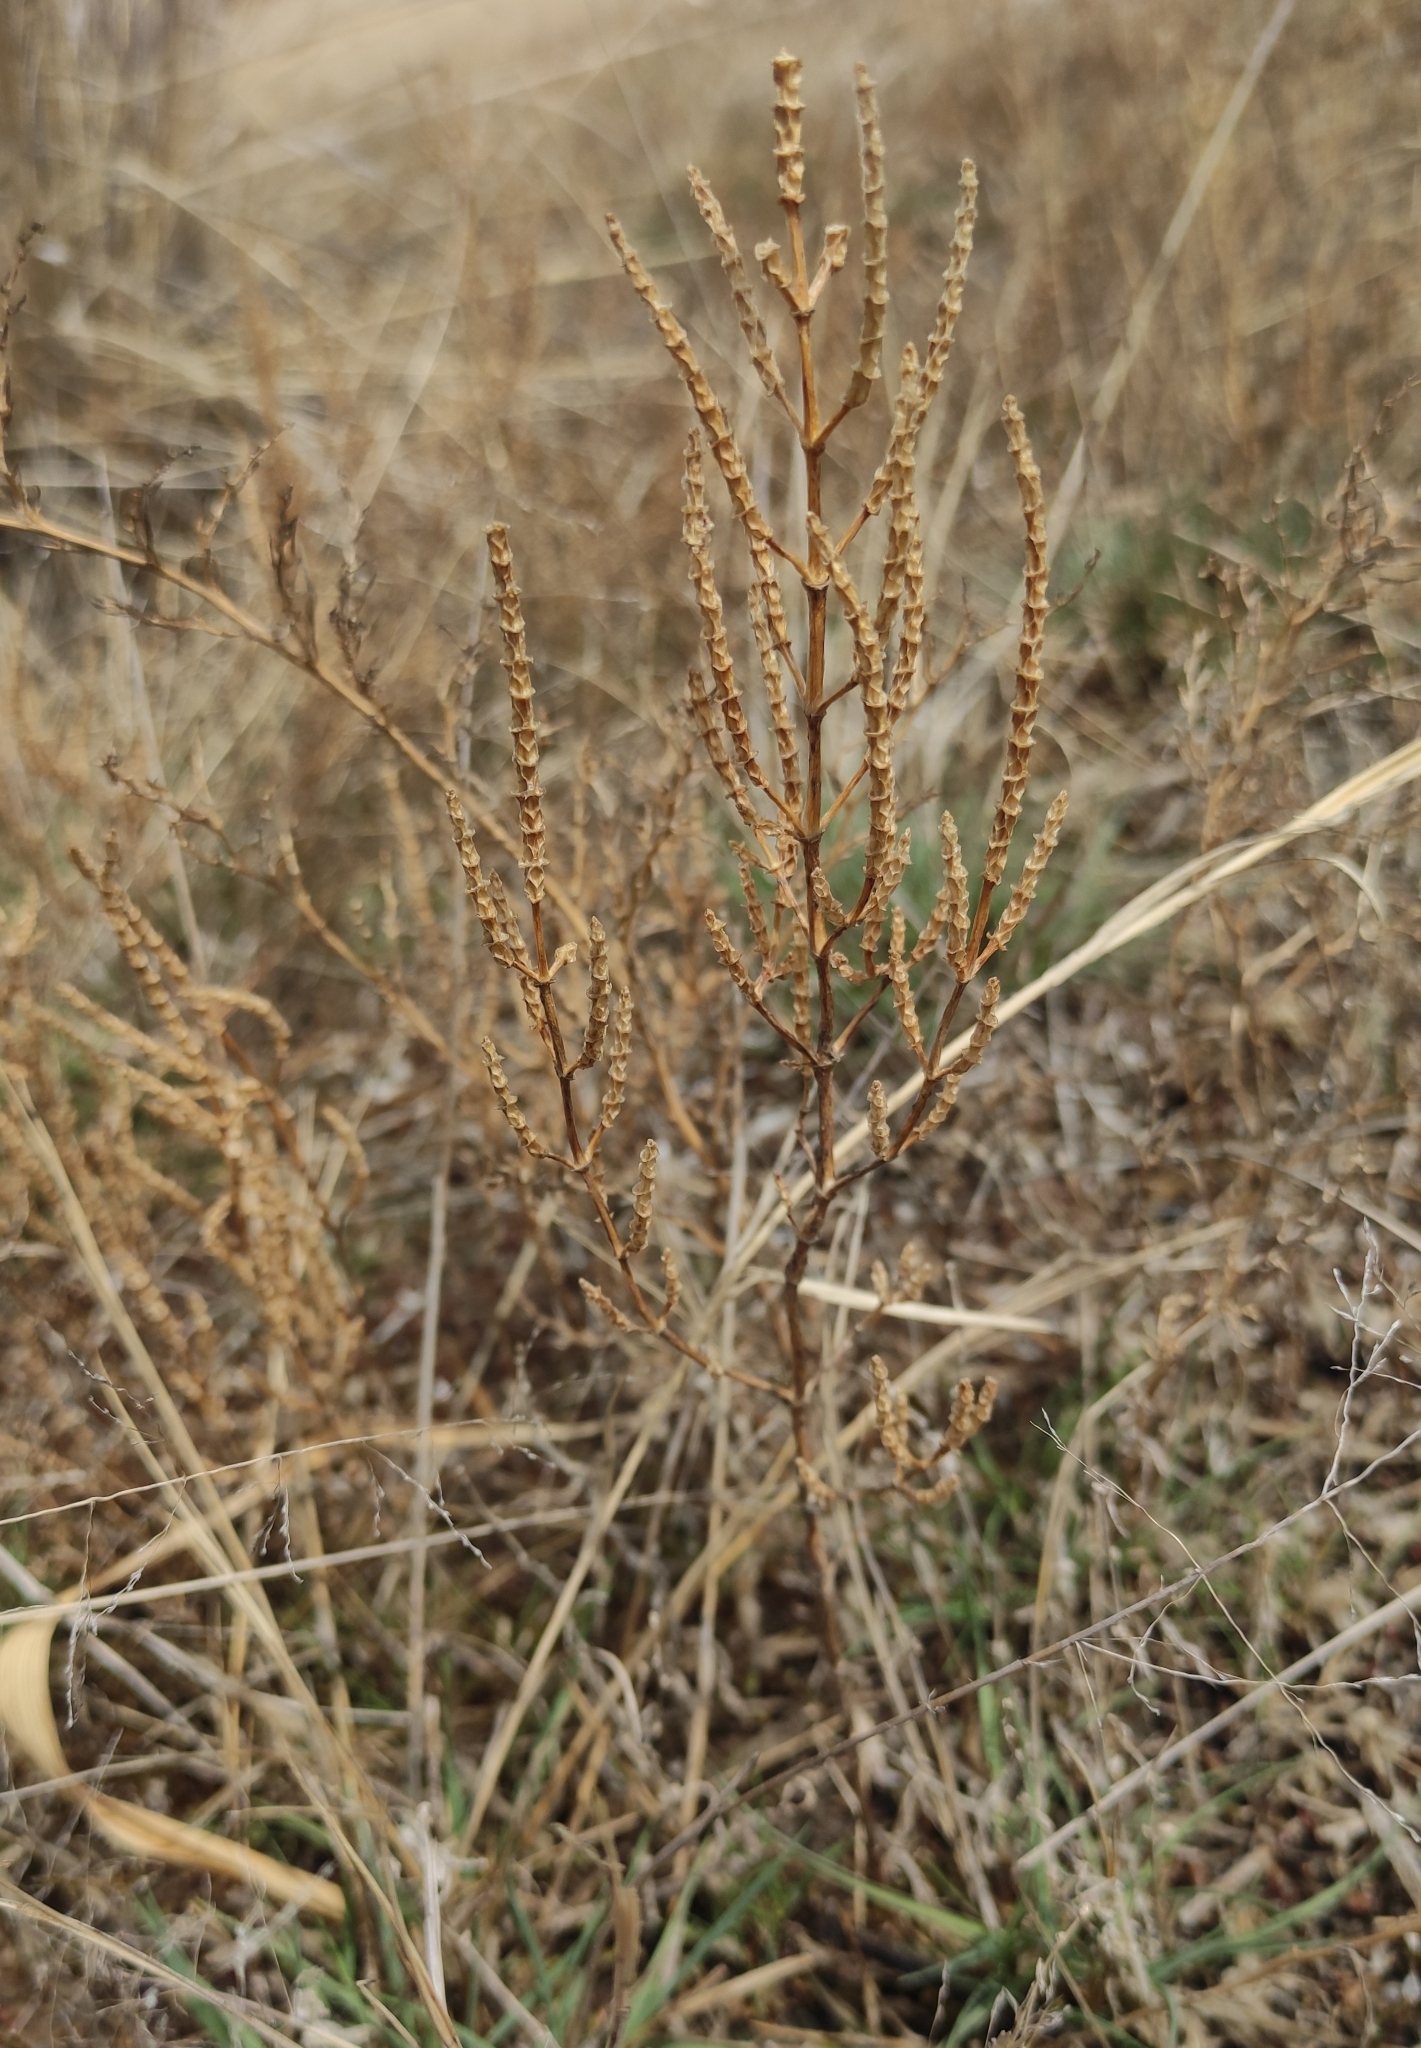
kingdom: Plantae
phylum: Tracheophyta
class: Magnoliopsida
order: Caryophyllales
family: Amaranthaceae
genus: Salicornia
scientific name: Salicornia perennans
